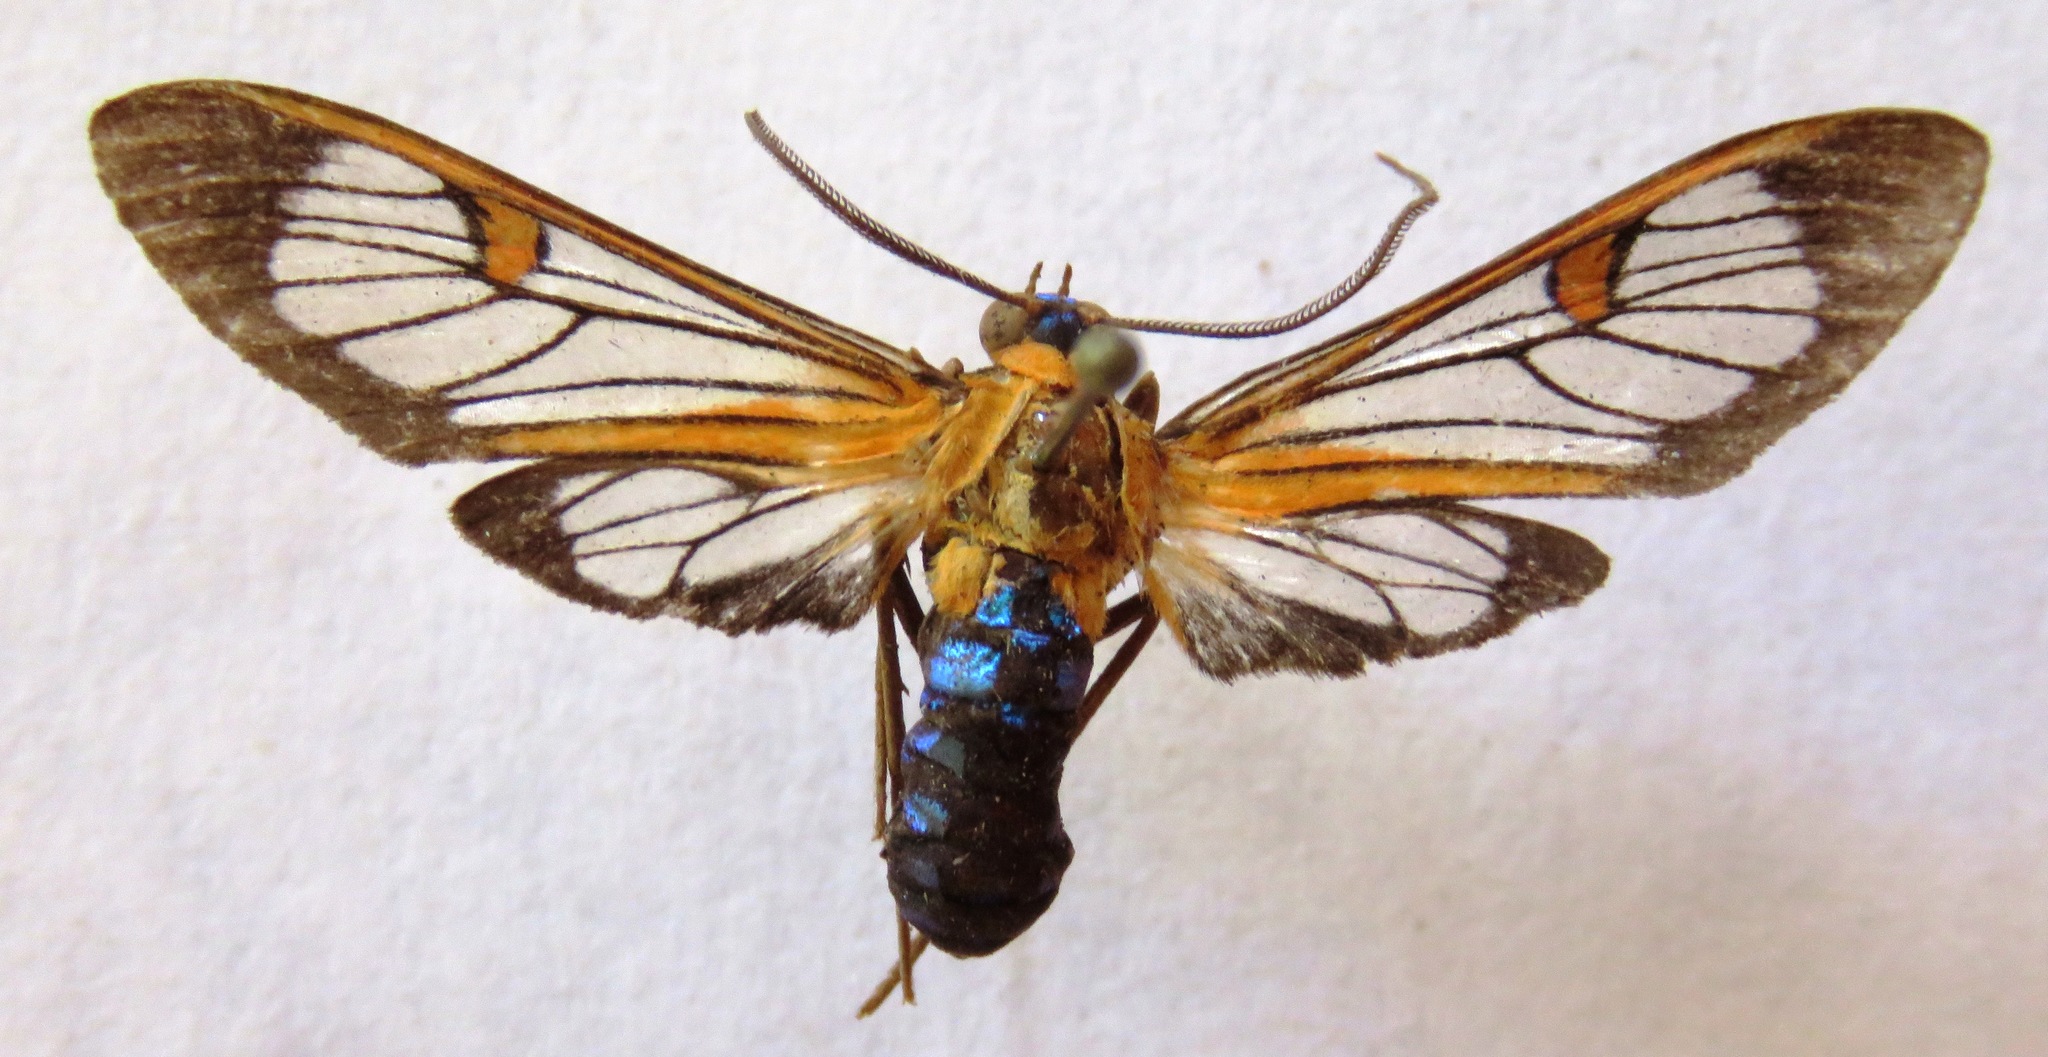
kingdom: Animalia
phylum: Arthropoda
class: Insecta
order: Lepidoptera
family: Erebidae
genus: Lepidoneiva
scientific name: Lepidoneiva teuthras
